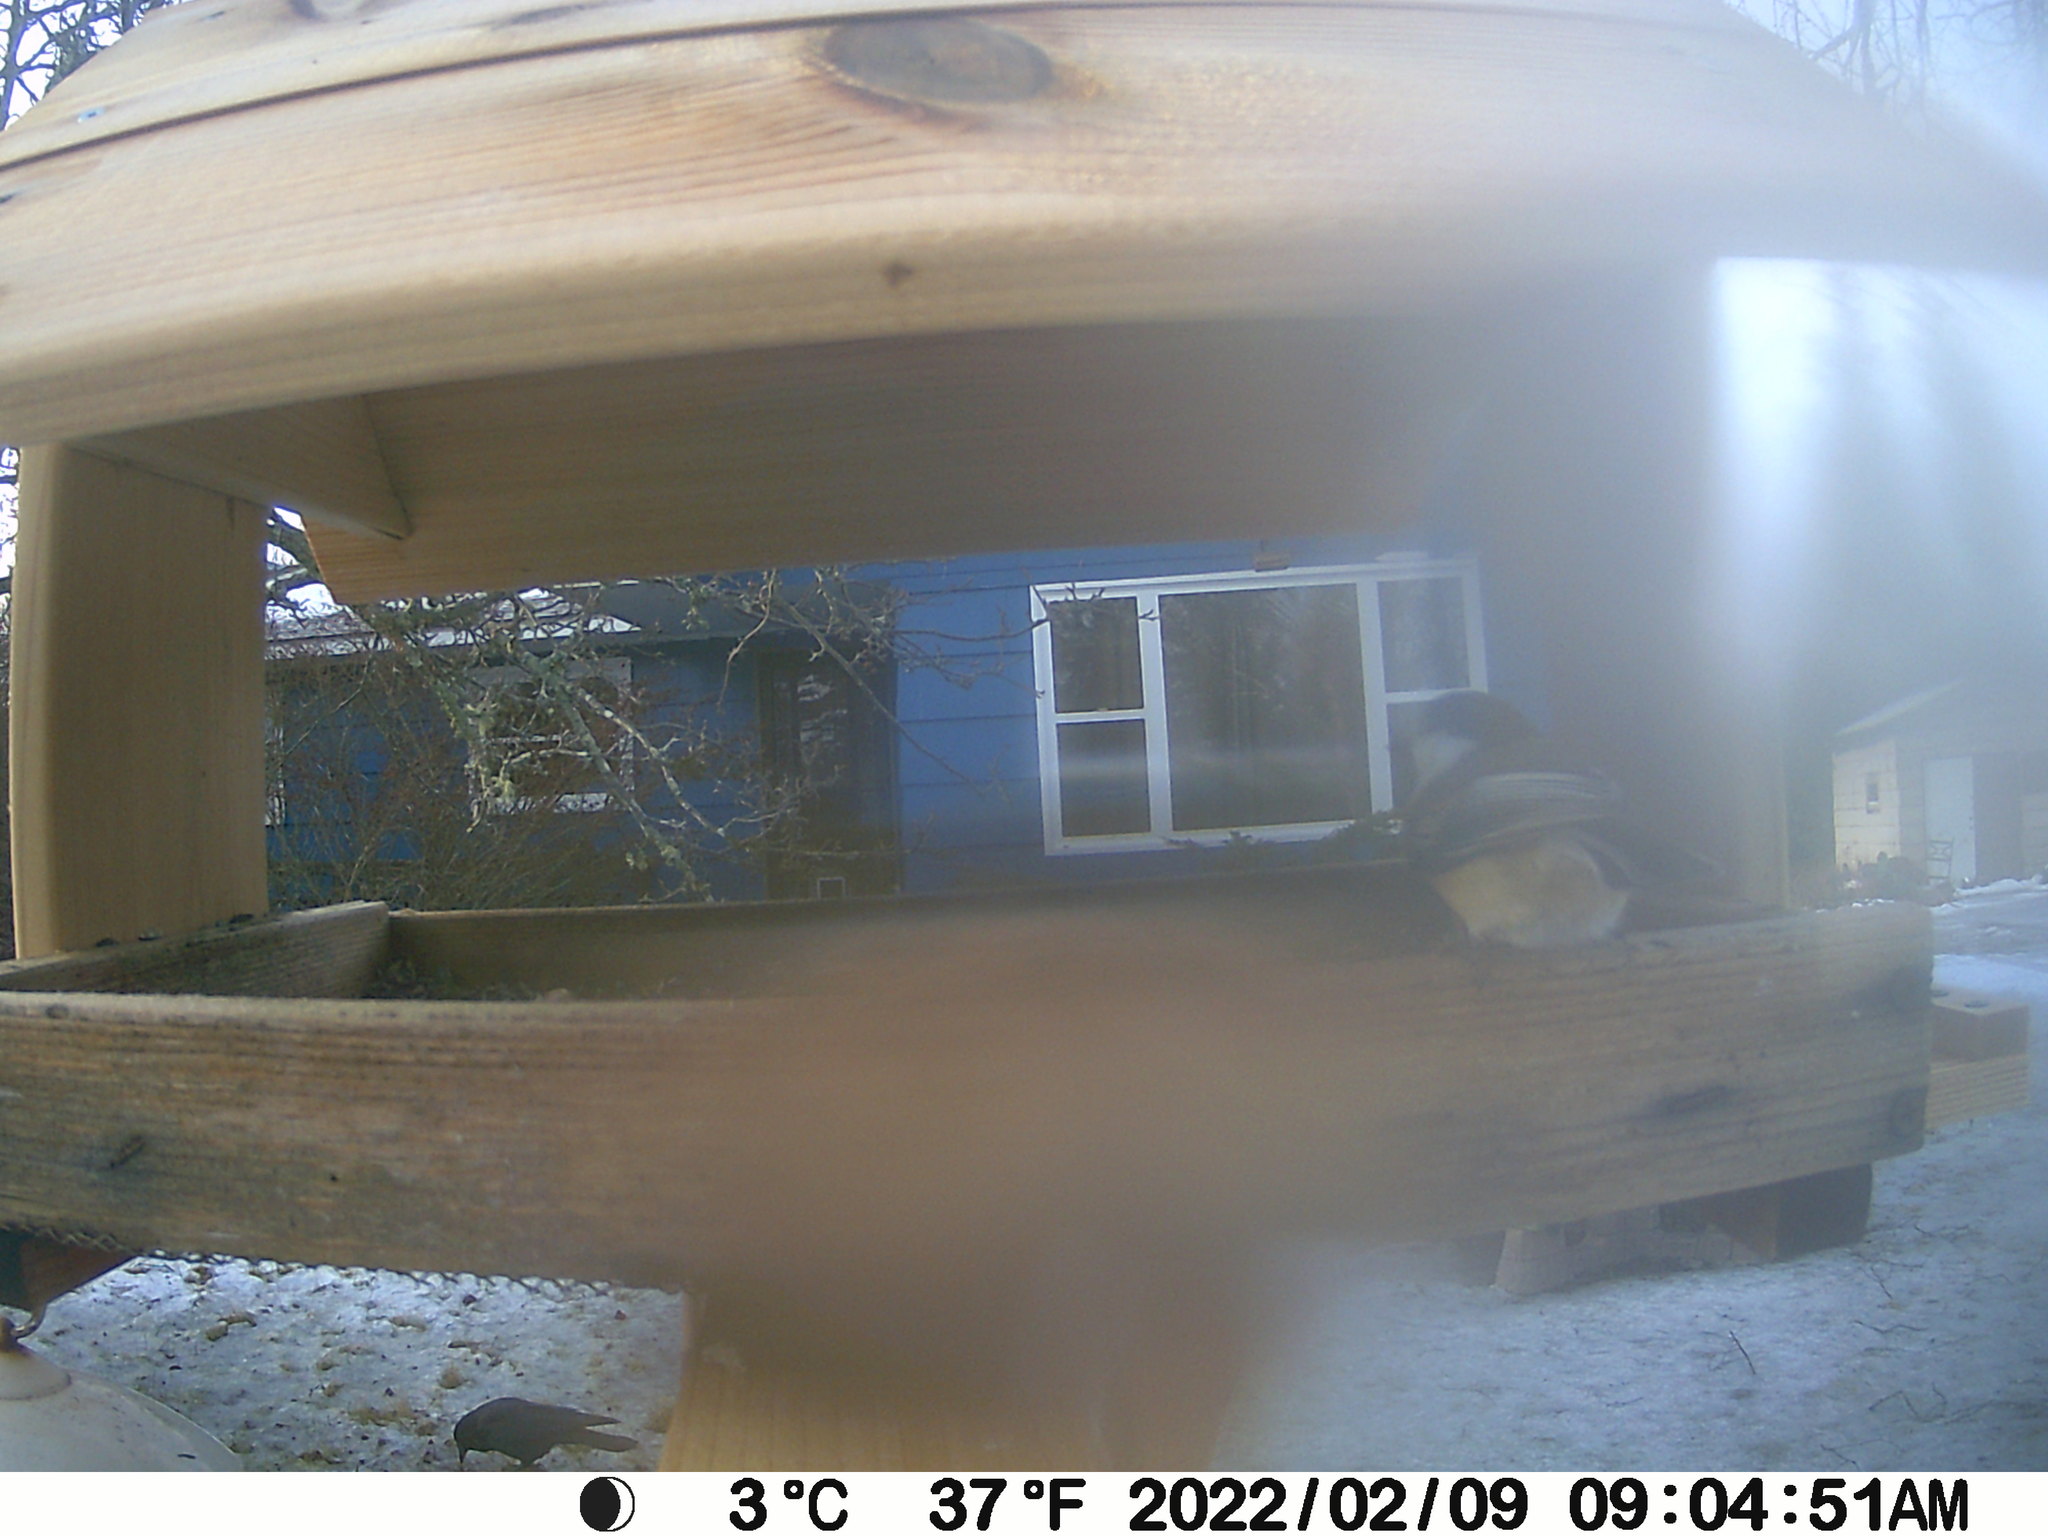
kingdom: Animalia
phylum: Chordata
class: Aves
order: Passeriformes
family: Corvidae
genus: Corvus
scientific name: Corvus brachyrhynchos
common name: American crow
